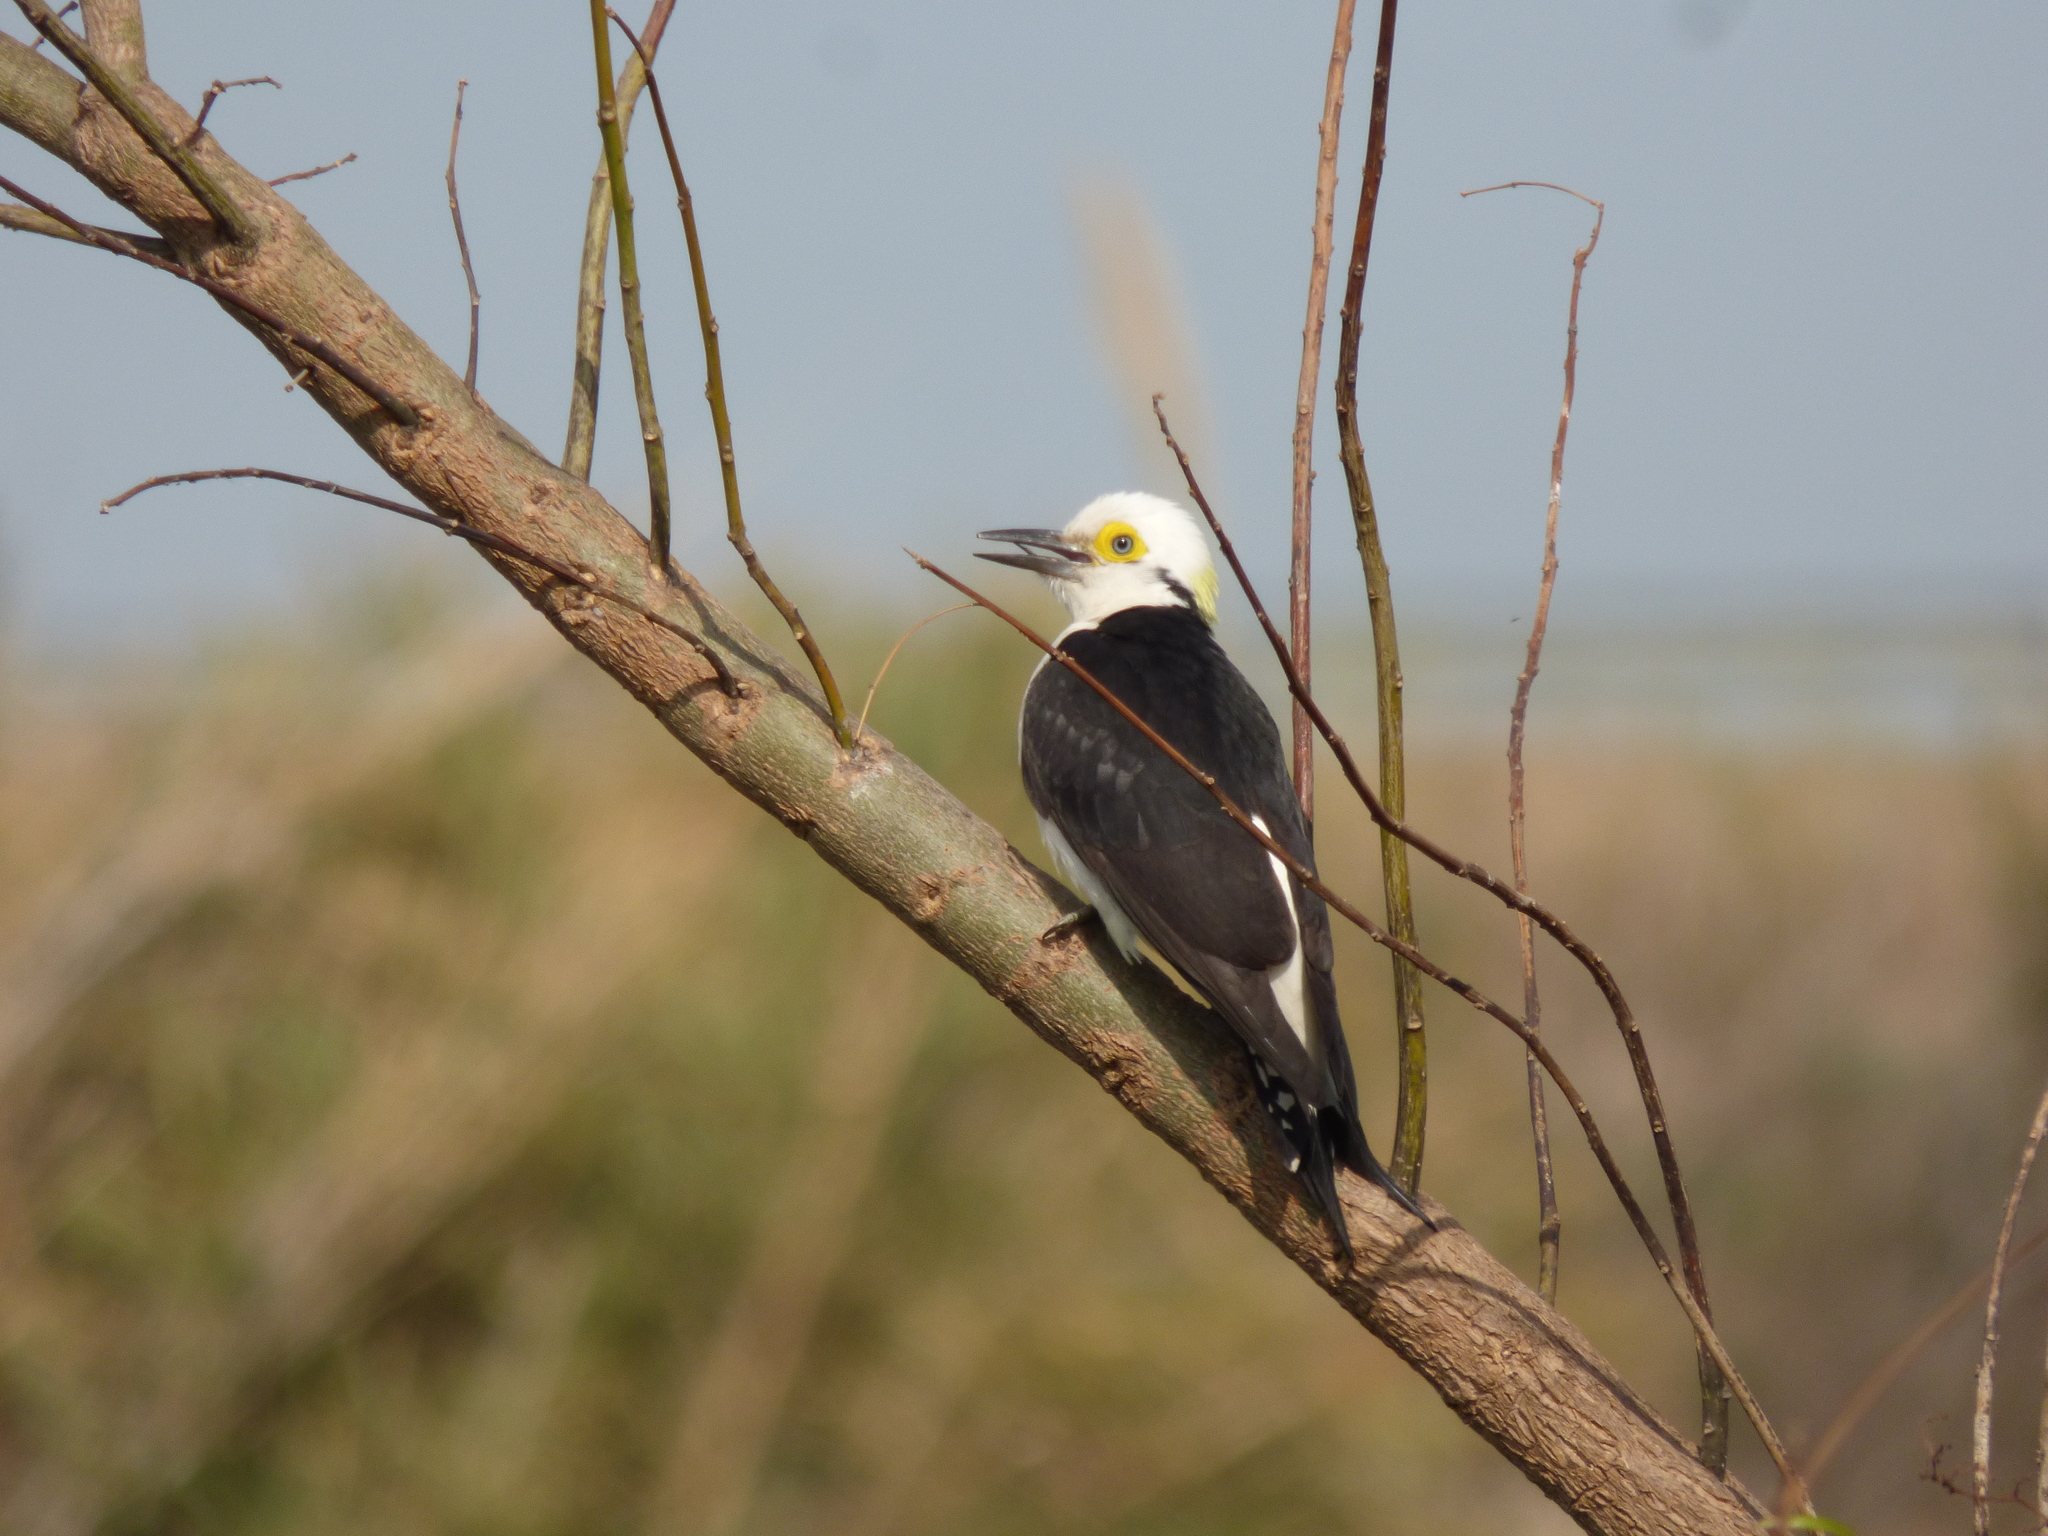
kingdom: Animalia
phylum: Chordata
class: Aves
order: Piciformes
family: Picidae
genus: Melanerpes
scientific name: Melanerpes candidus
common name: White woodpecker
